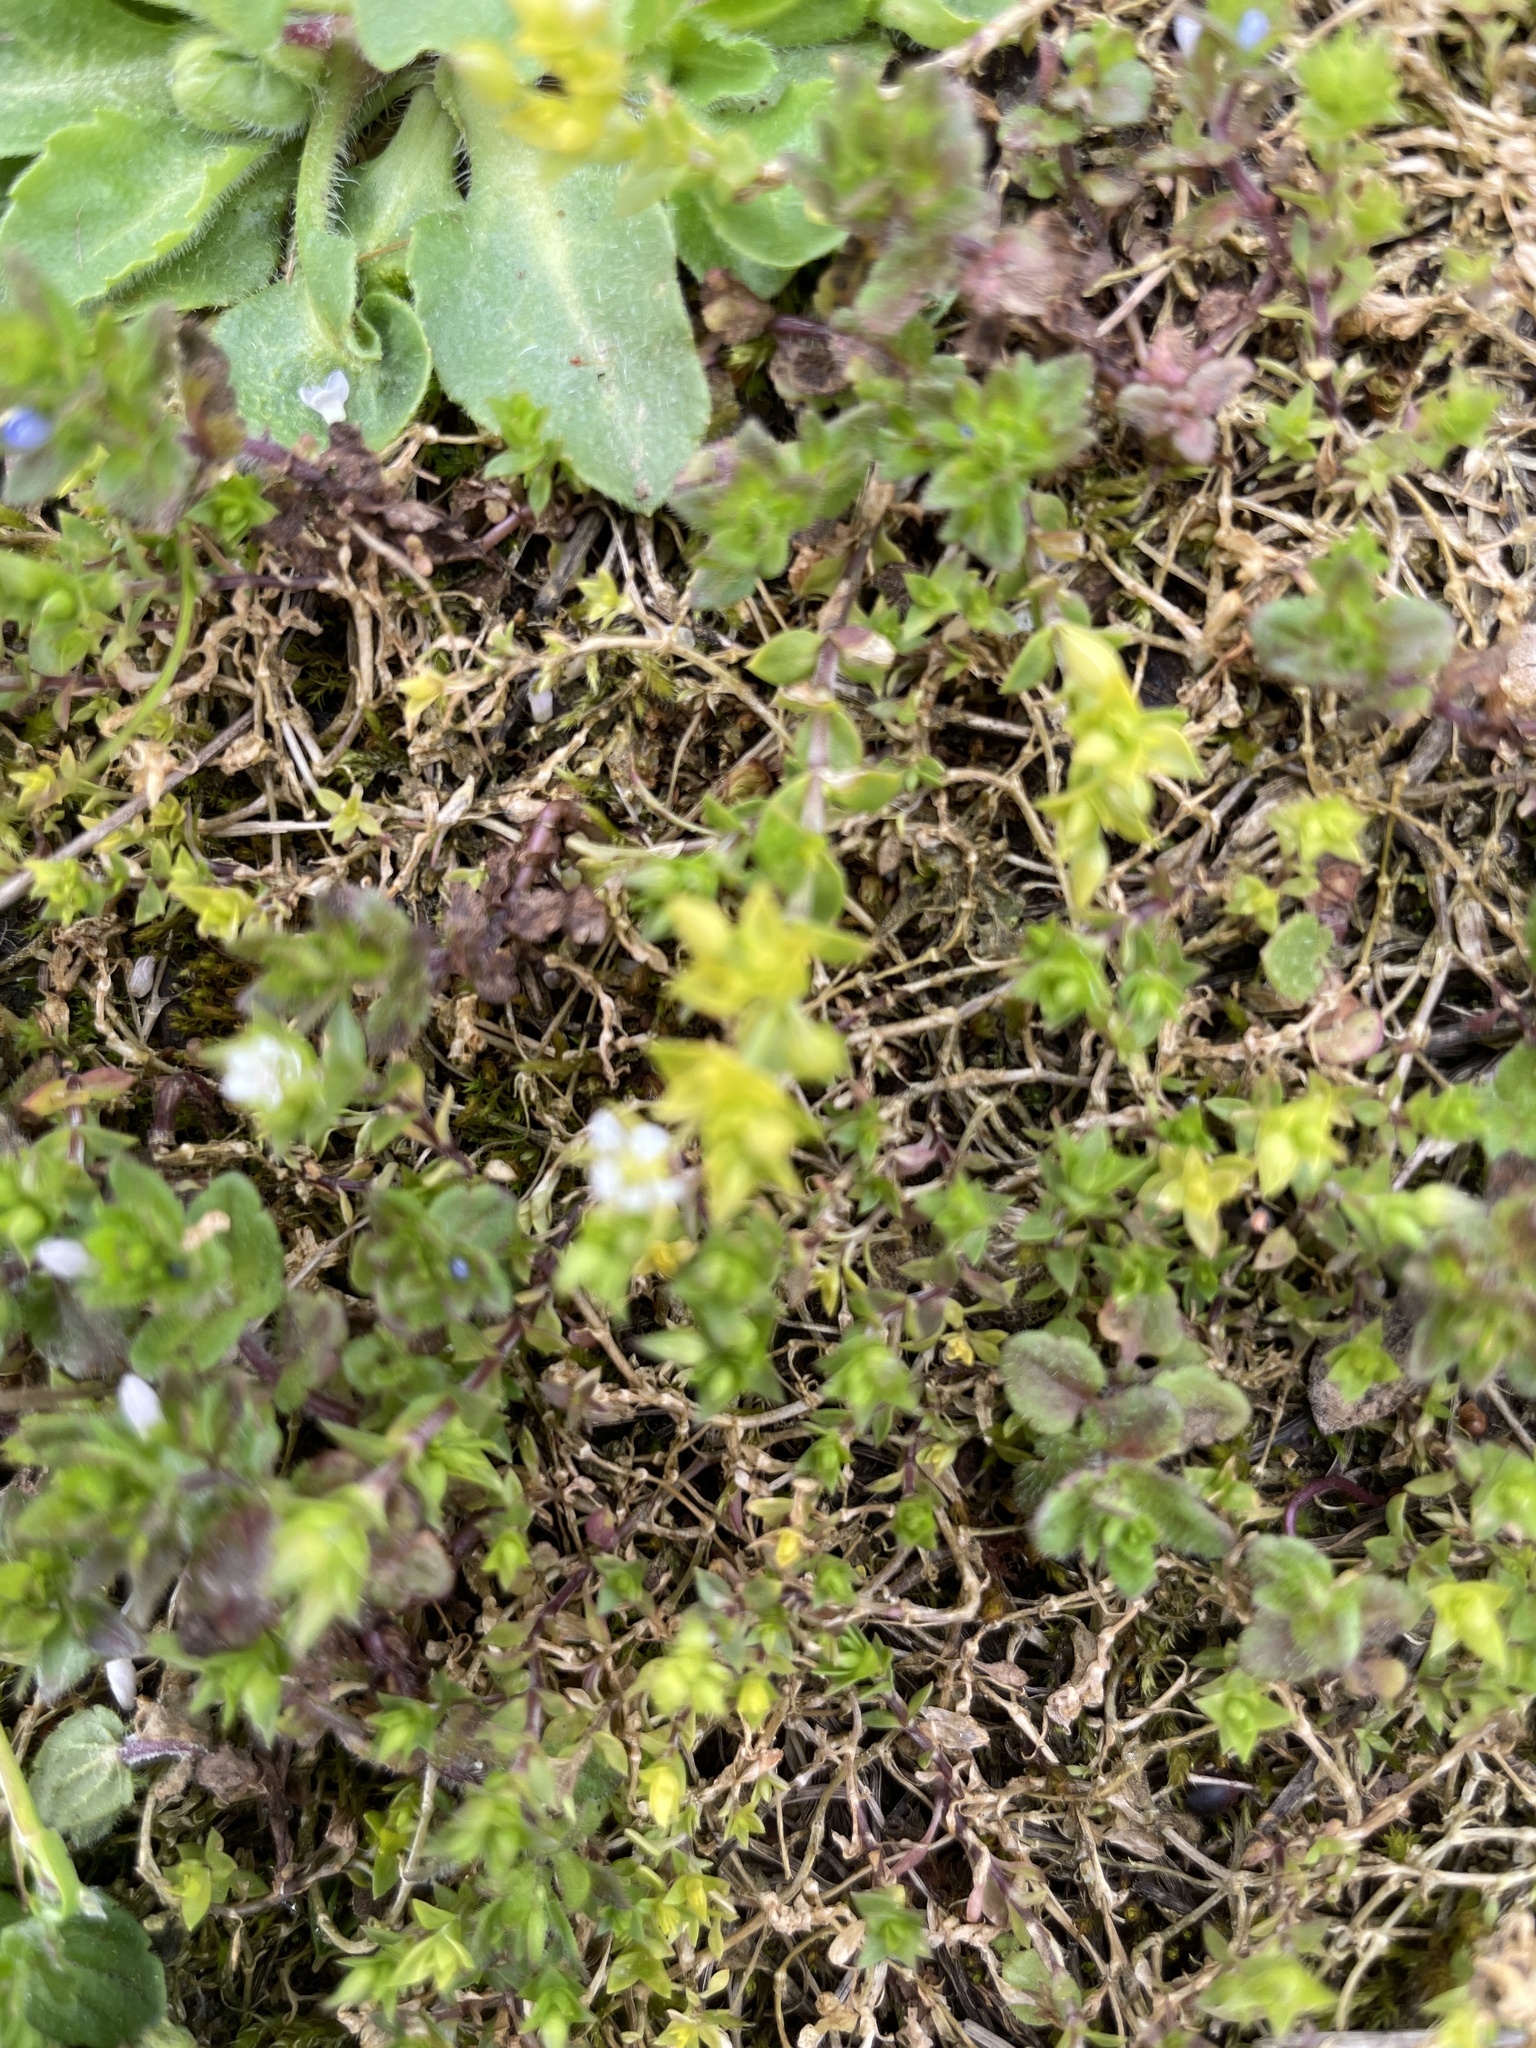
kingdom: Plantae
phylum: Tracheophyta
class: Magnoliopsida
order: Caryophyllales
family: Caryophyllaceae
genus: Arenaria
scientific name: Arenaria serpyllifolia
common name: Thyme-leaved sandwort
